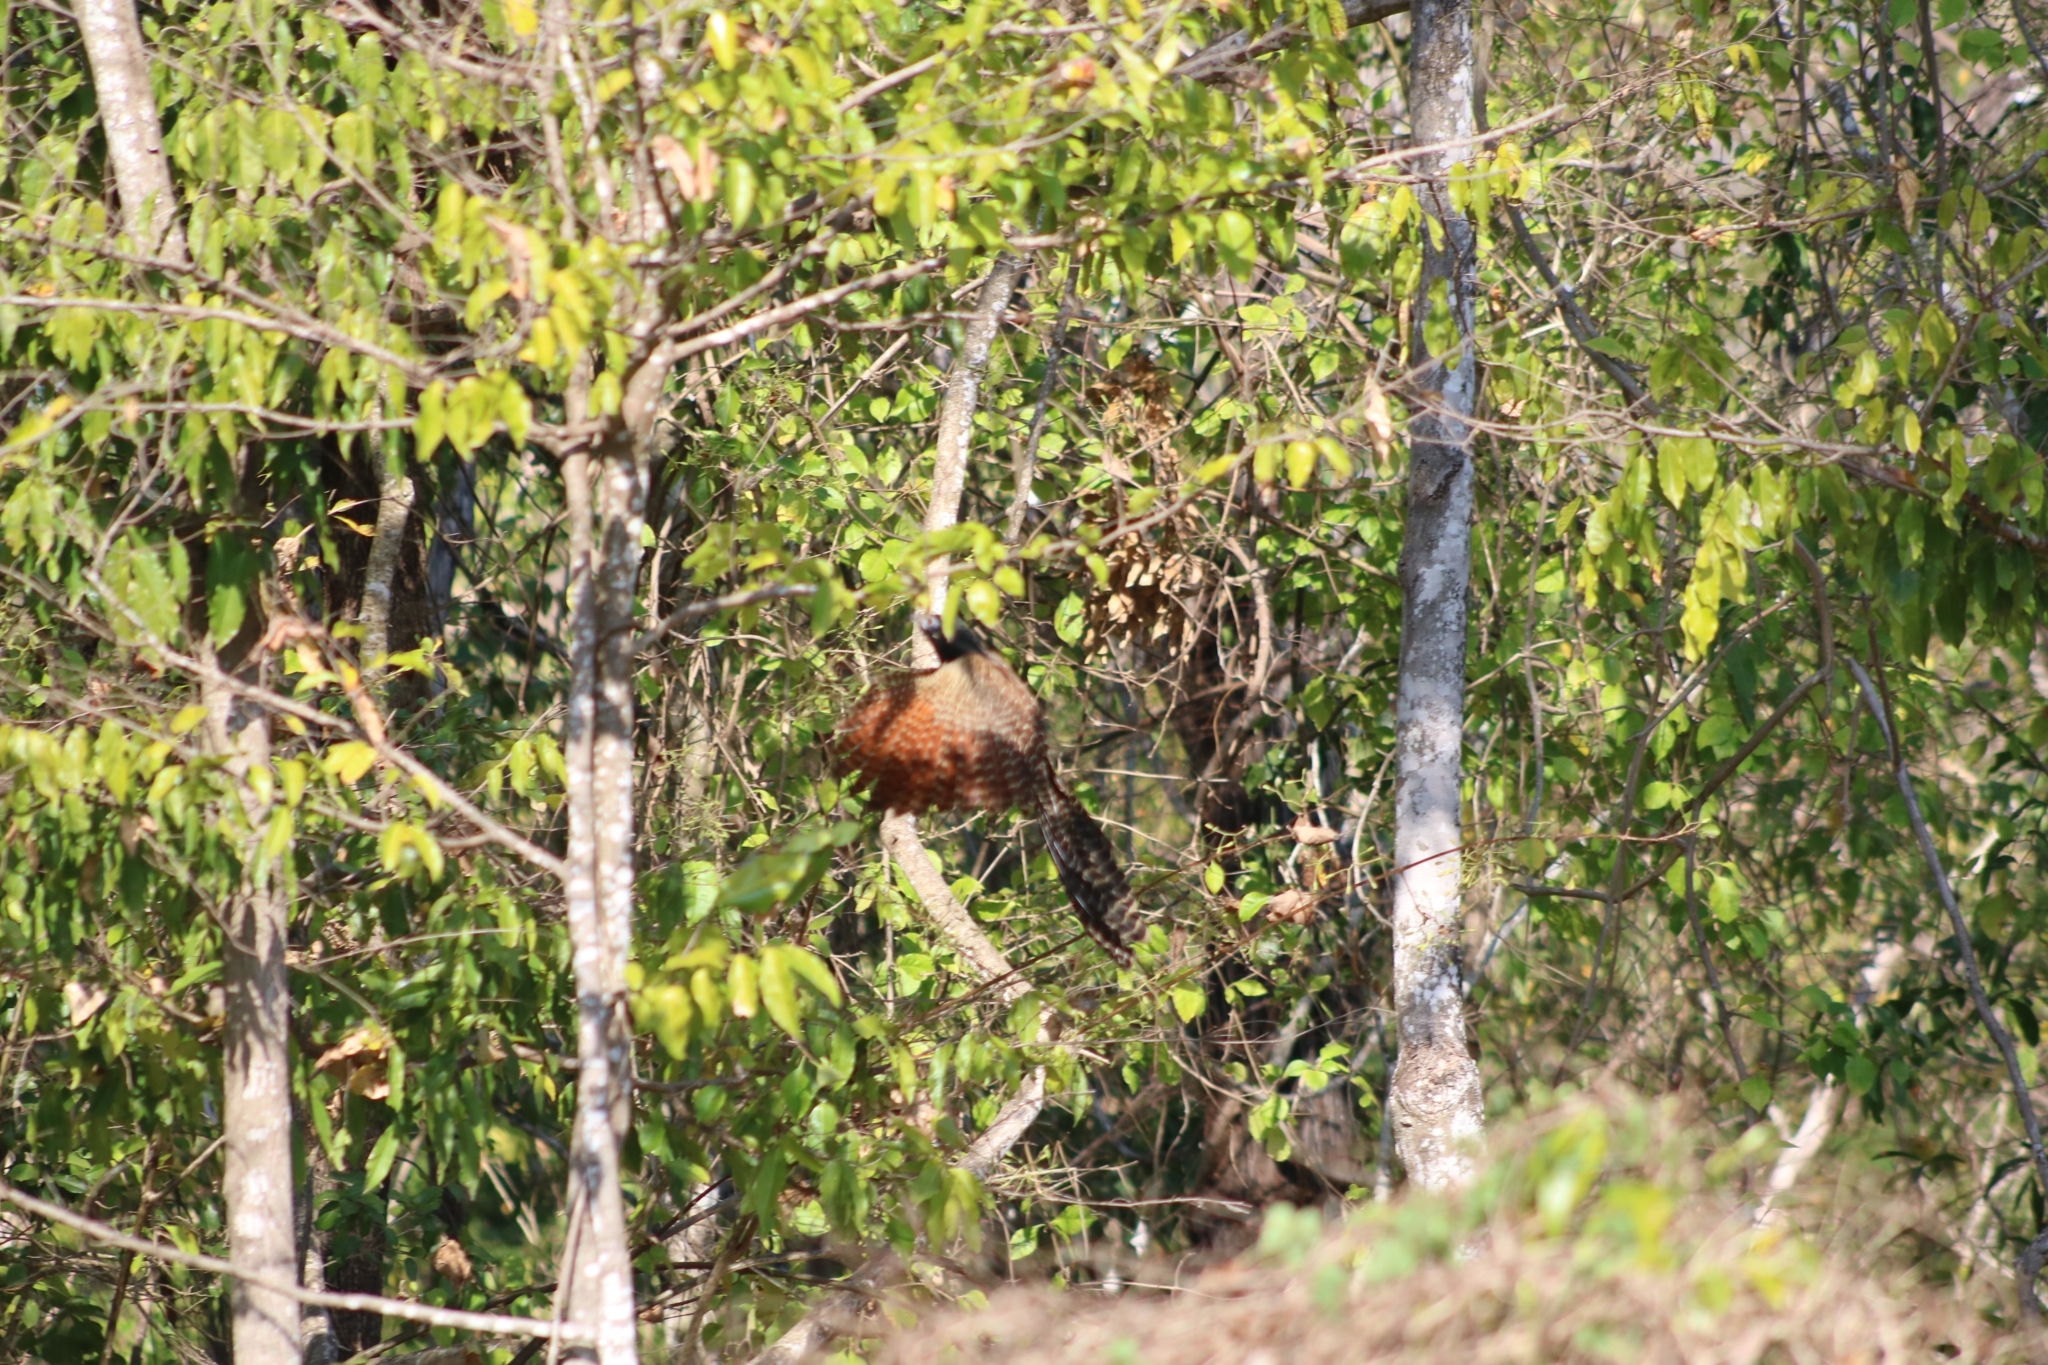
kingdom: Animalia
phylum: Chordata
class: Aves
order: Cuculiformes
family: Cuculidae
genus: Centropus
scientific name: Centropus phasianinus
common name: Pheasant coucal
